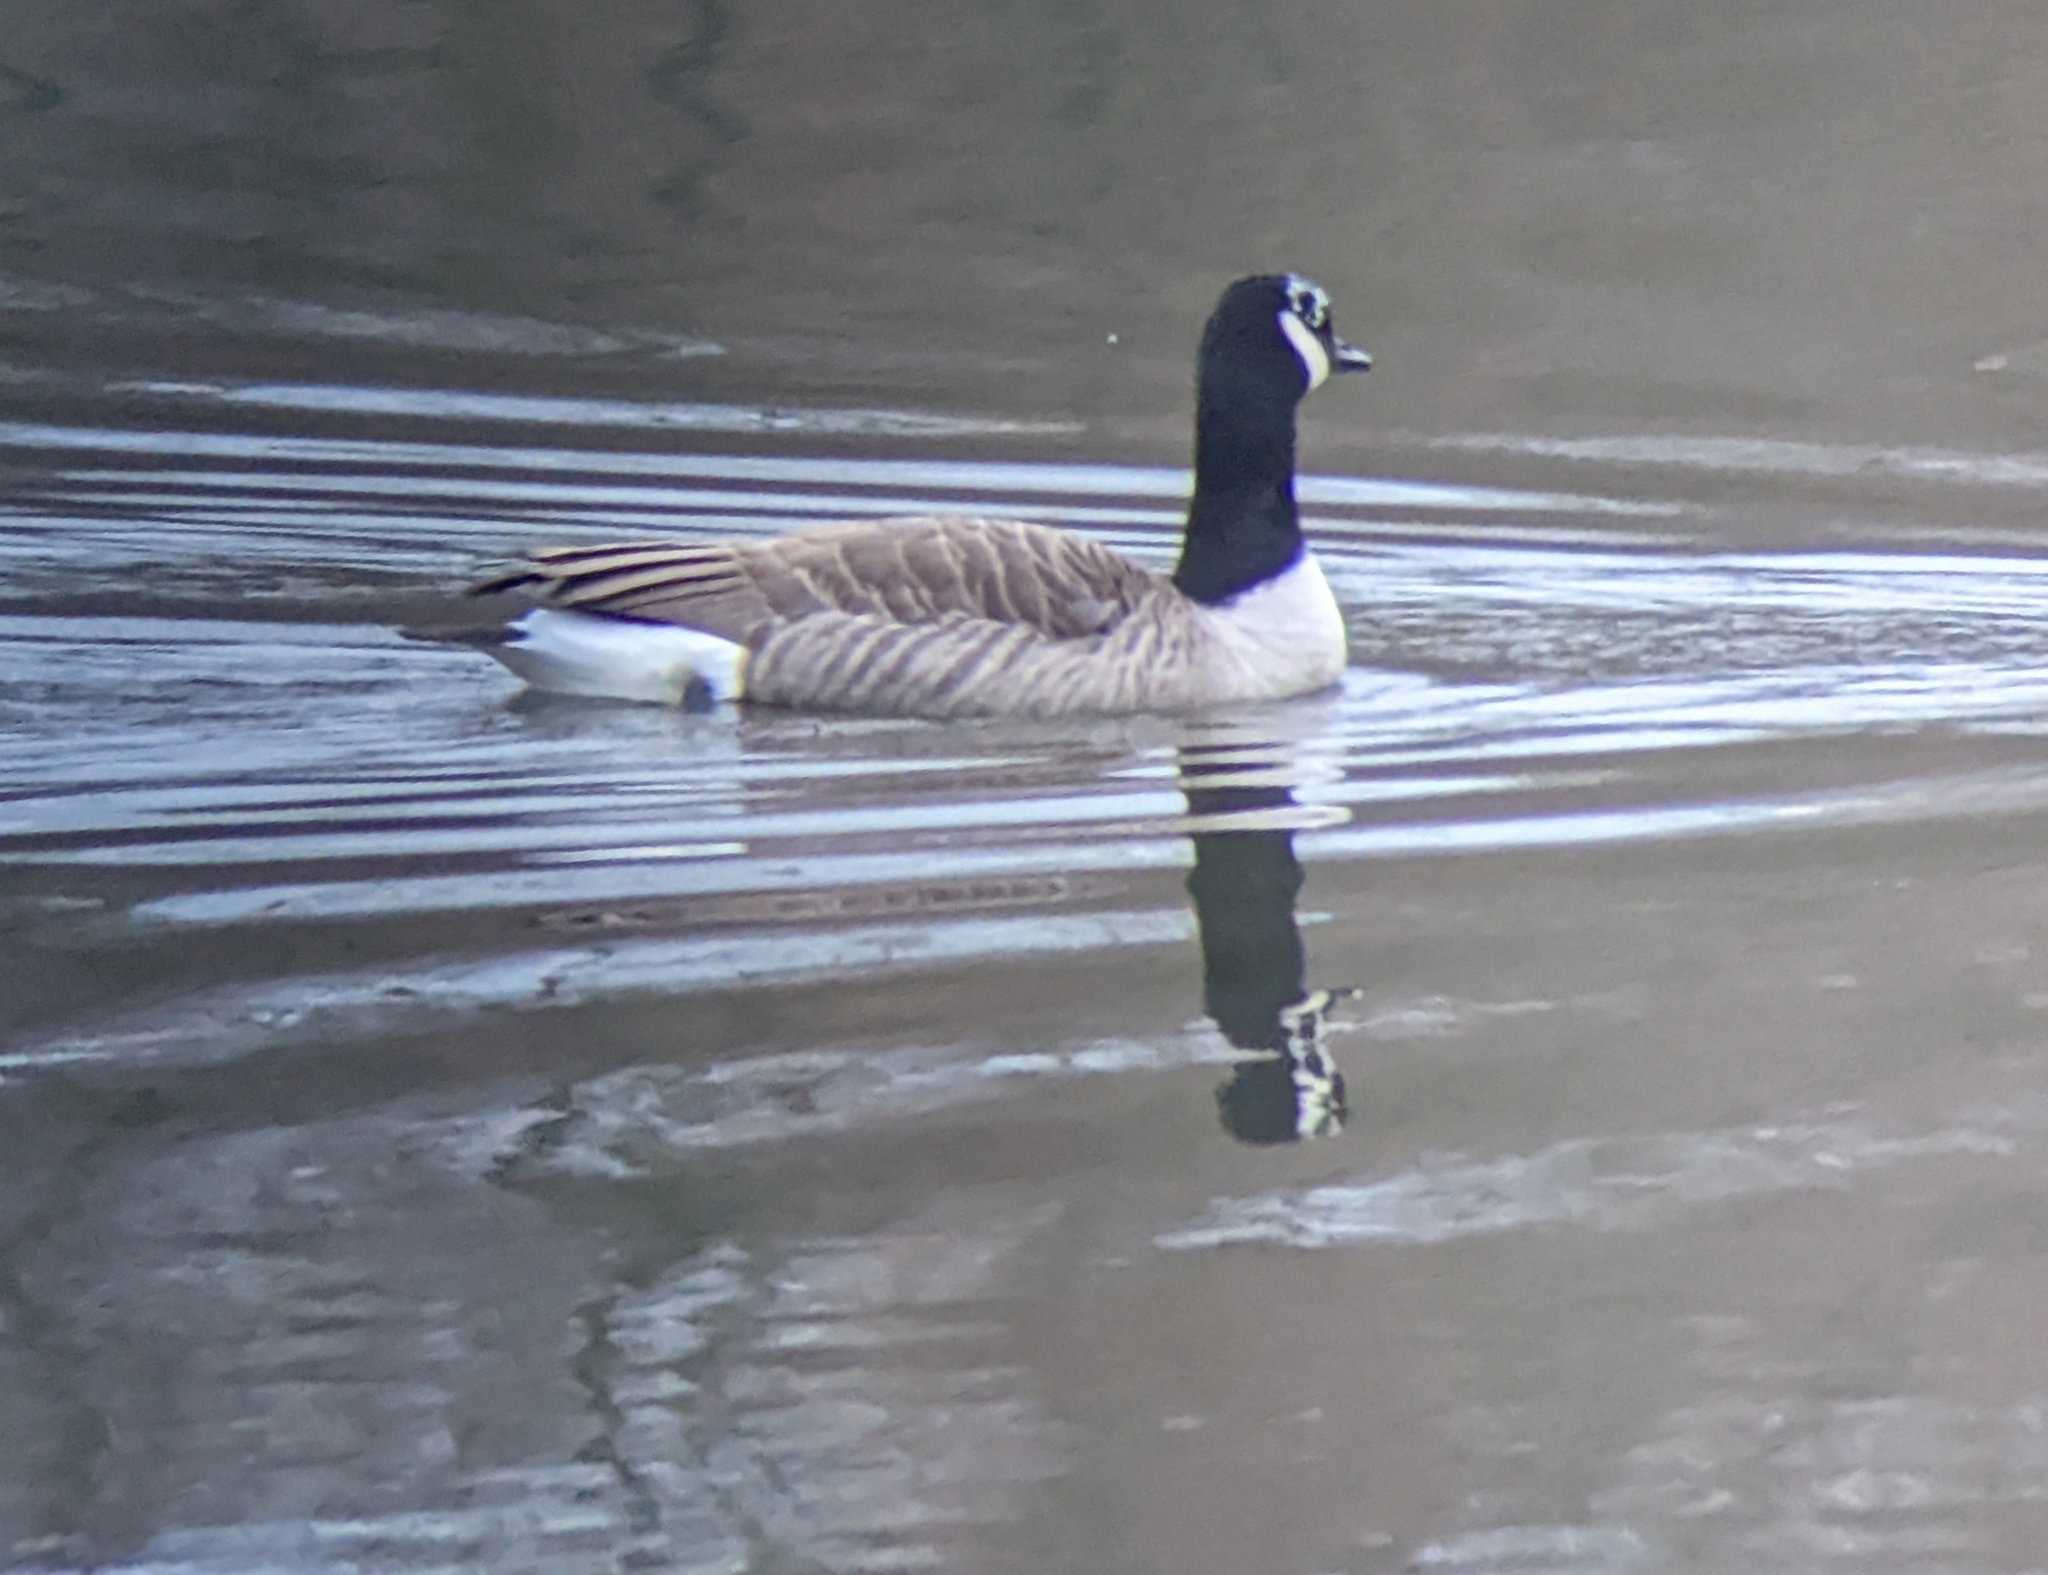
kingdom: Animalia
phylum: Chordata
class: Aves
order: Anseriformes
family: Anatidae
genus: Branta
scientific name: Branta canadensis
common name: Canada goose
